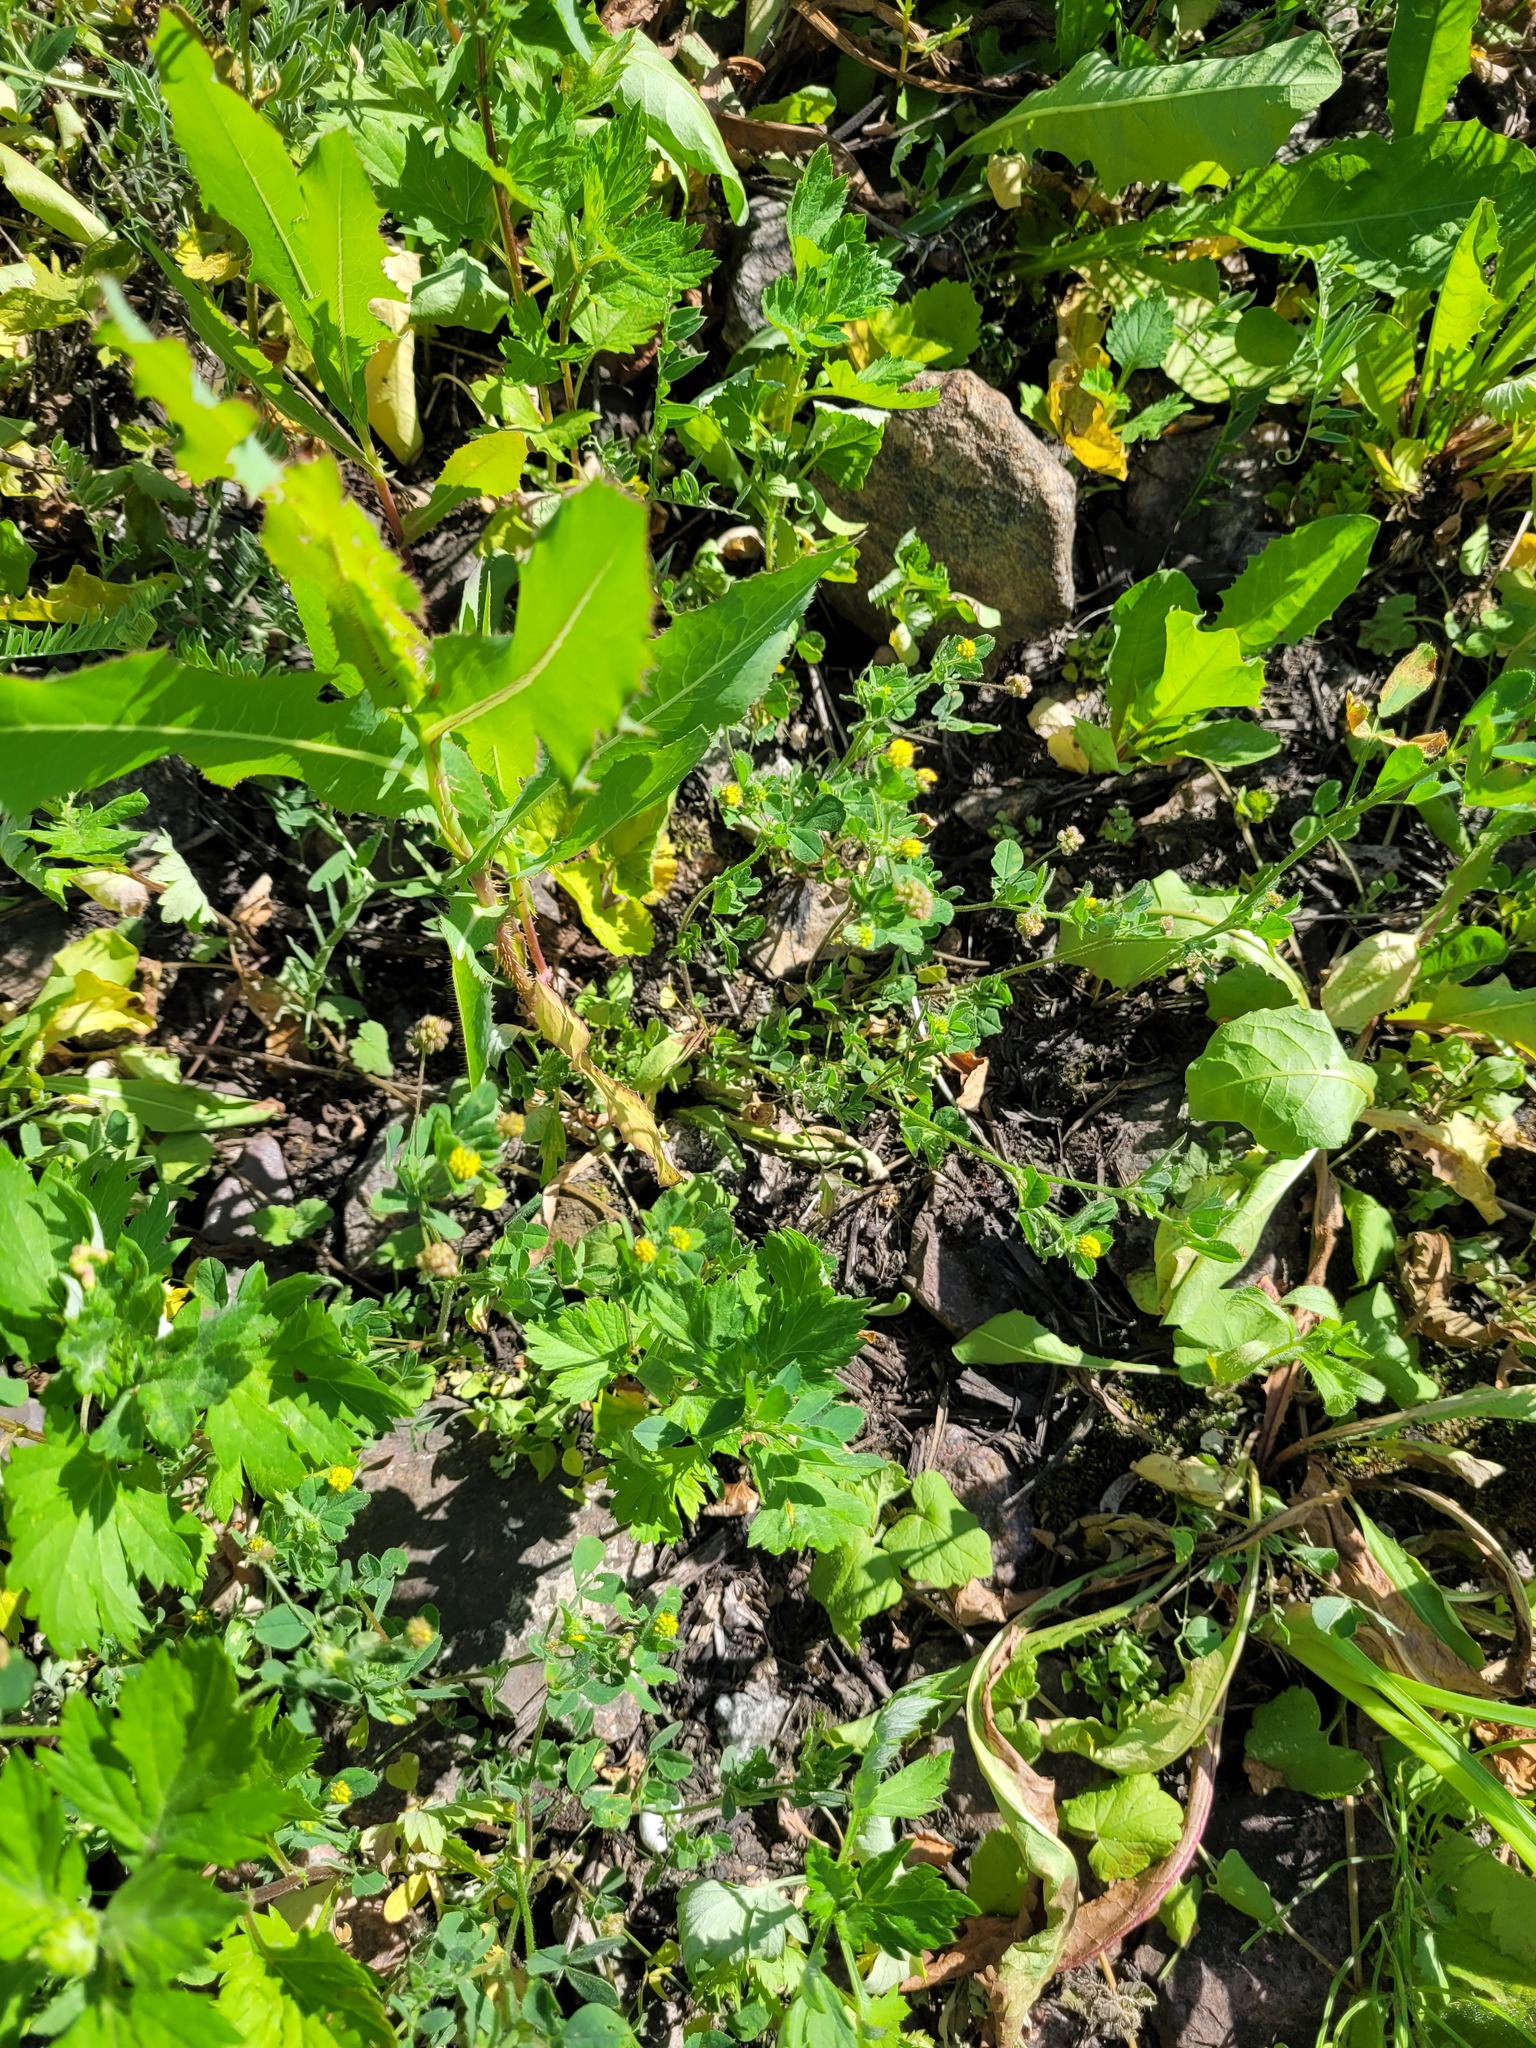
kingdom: Plantae
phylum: Tracheophyta
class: Magnoliopsida
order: Fabales
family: Fabaceae
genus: Medicago
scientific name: Medicago lupulina
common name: Black medick
